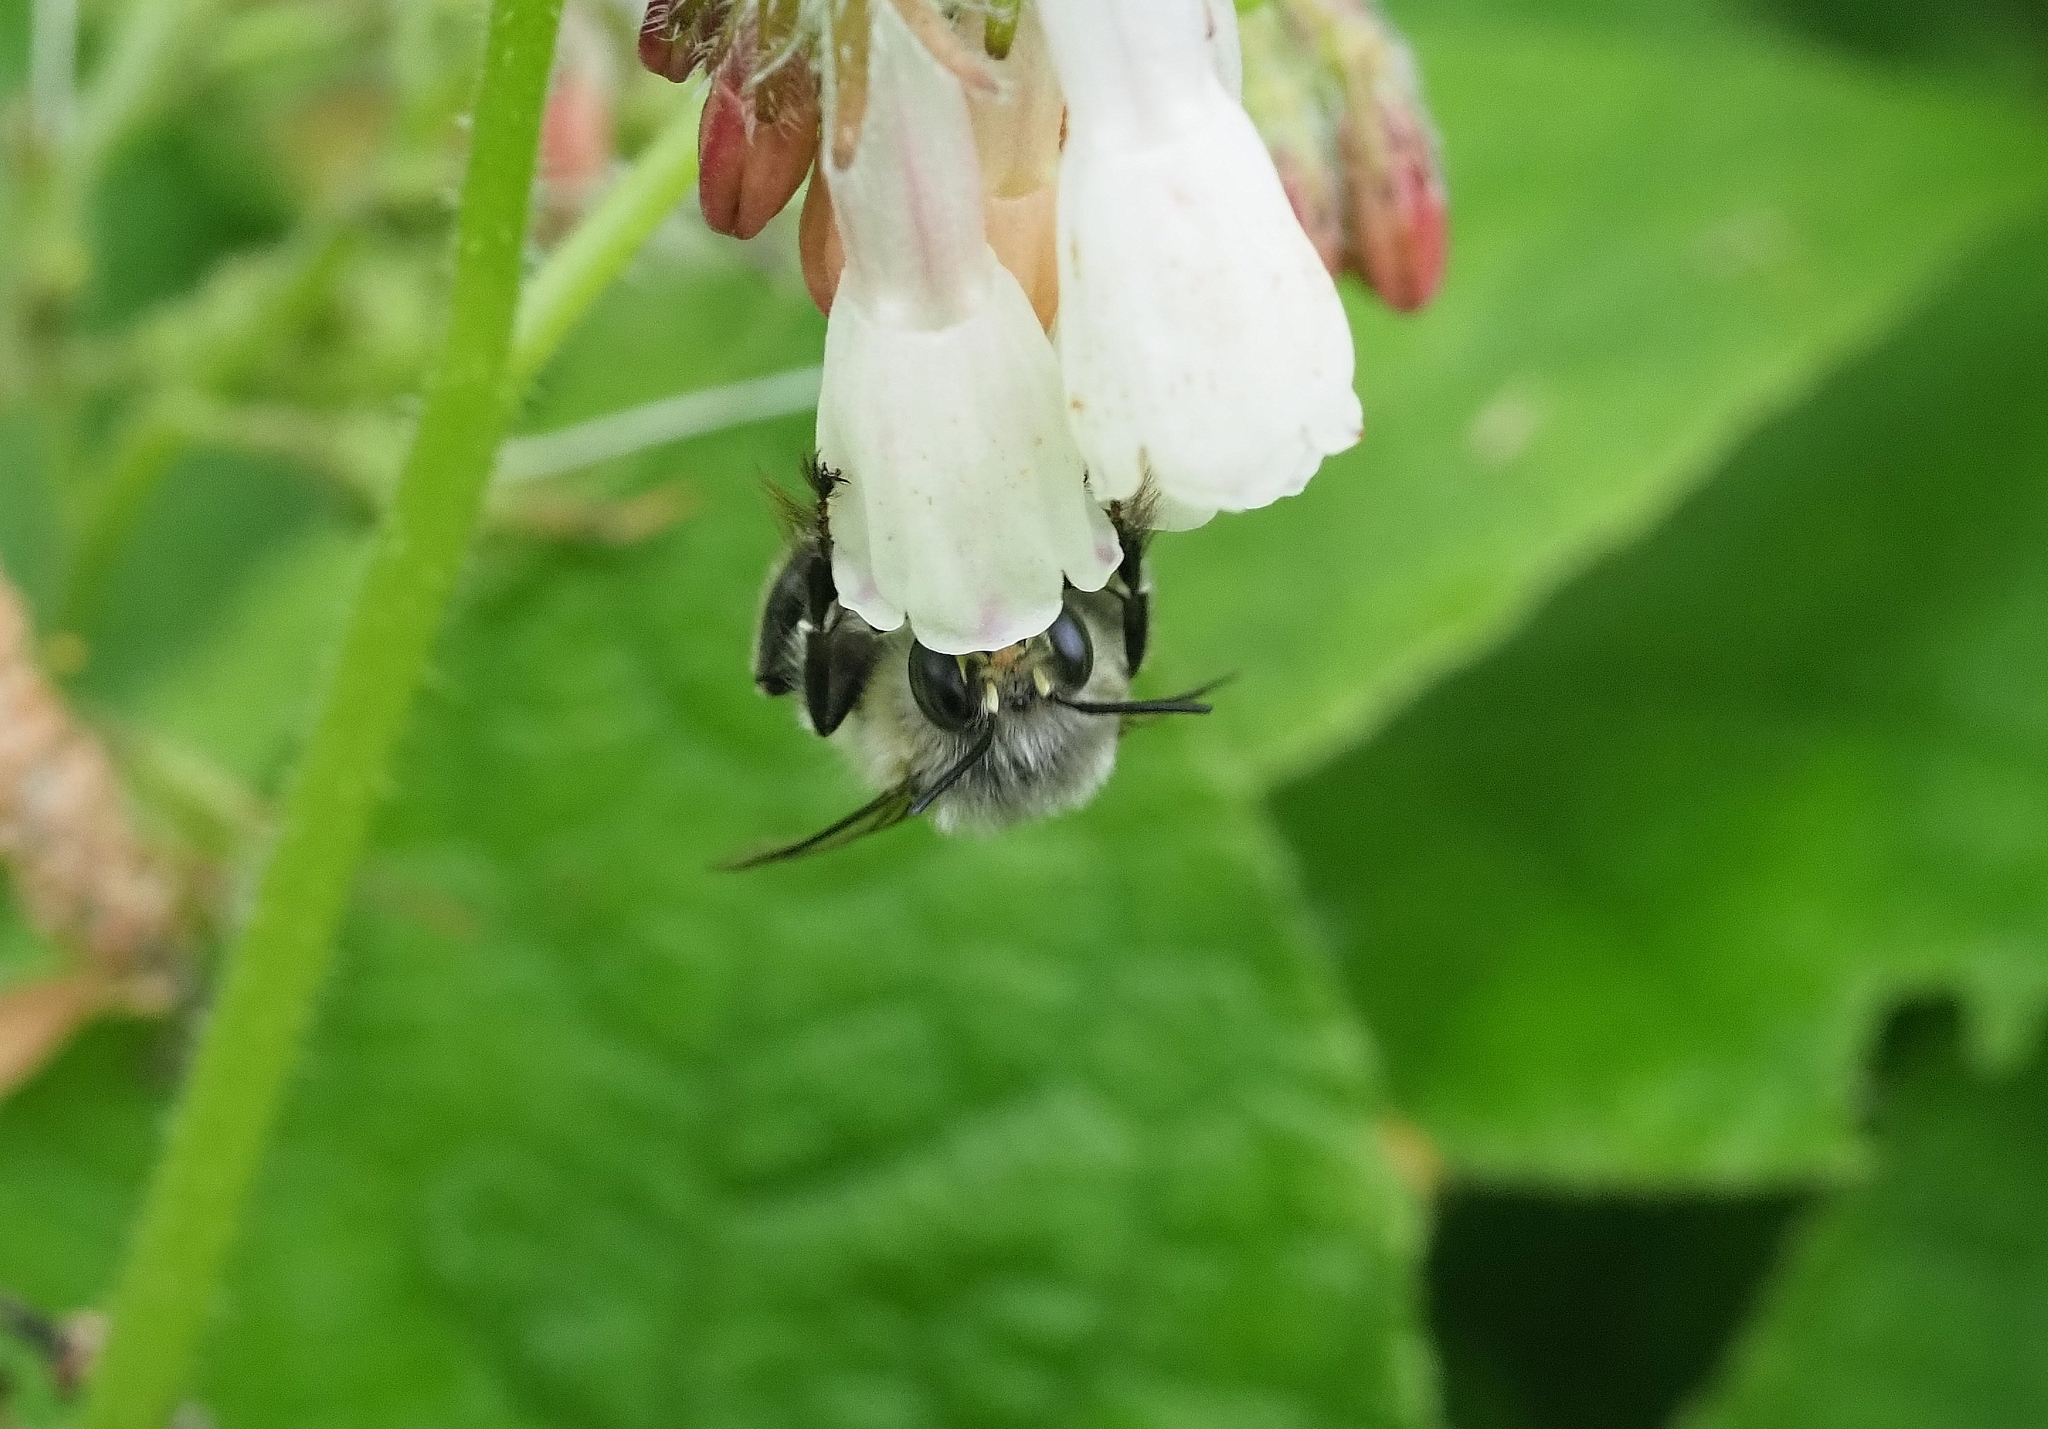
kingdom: Animalia
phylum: Arthropoda
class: Insecta
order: Hymenoptera
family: Apidae
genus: Anthophora
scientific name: Anthophora plumipes
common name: Hairy-footed flower bee
